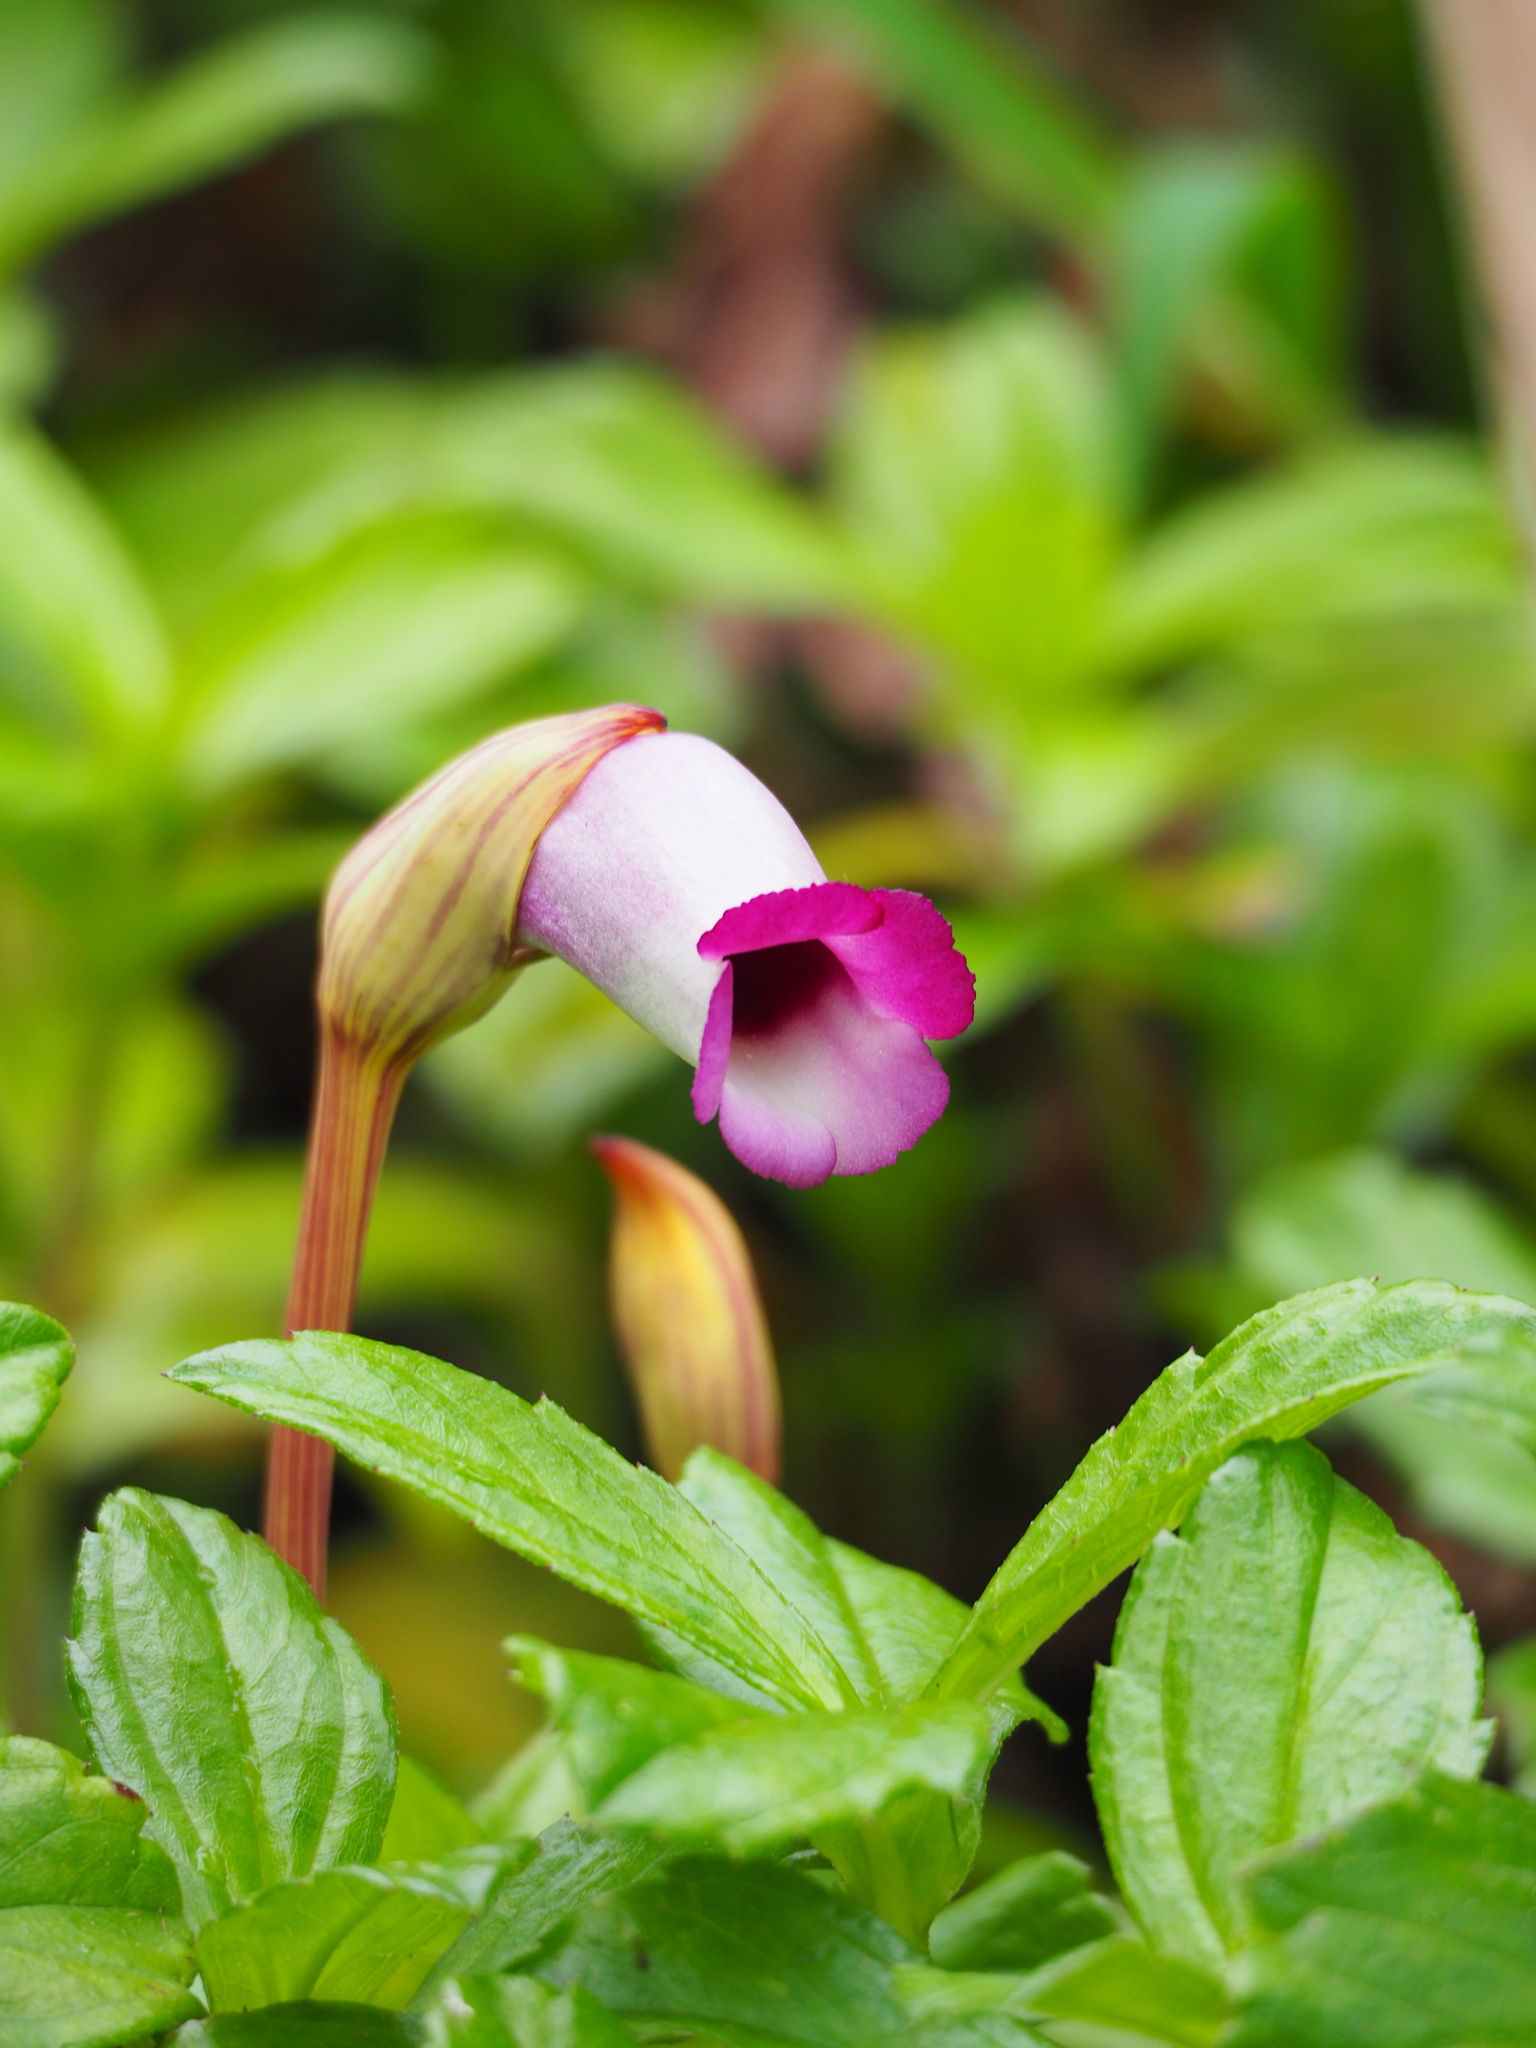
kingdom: Plantae
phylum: Tracheophyta
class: Magnoliopsida
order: Lamiales
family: Orobanchaceae
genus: Aeginetia
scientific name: Aeginetia indica
